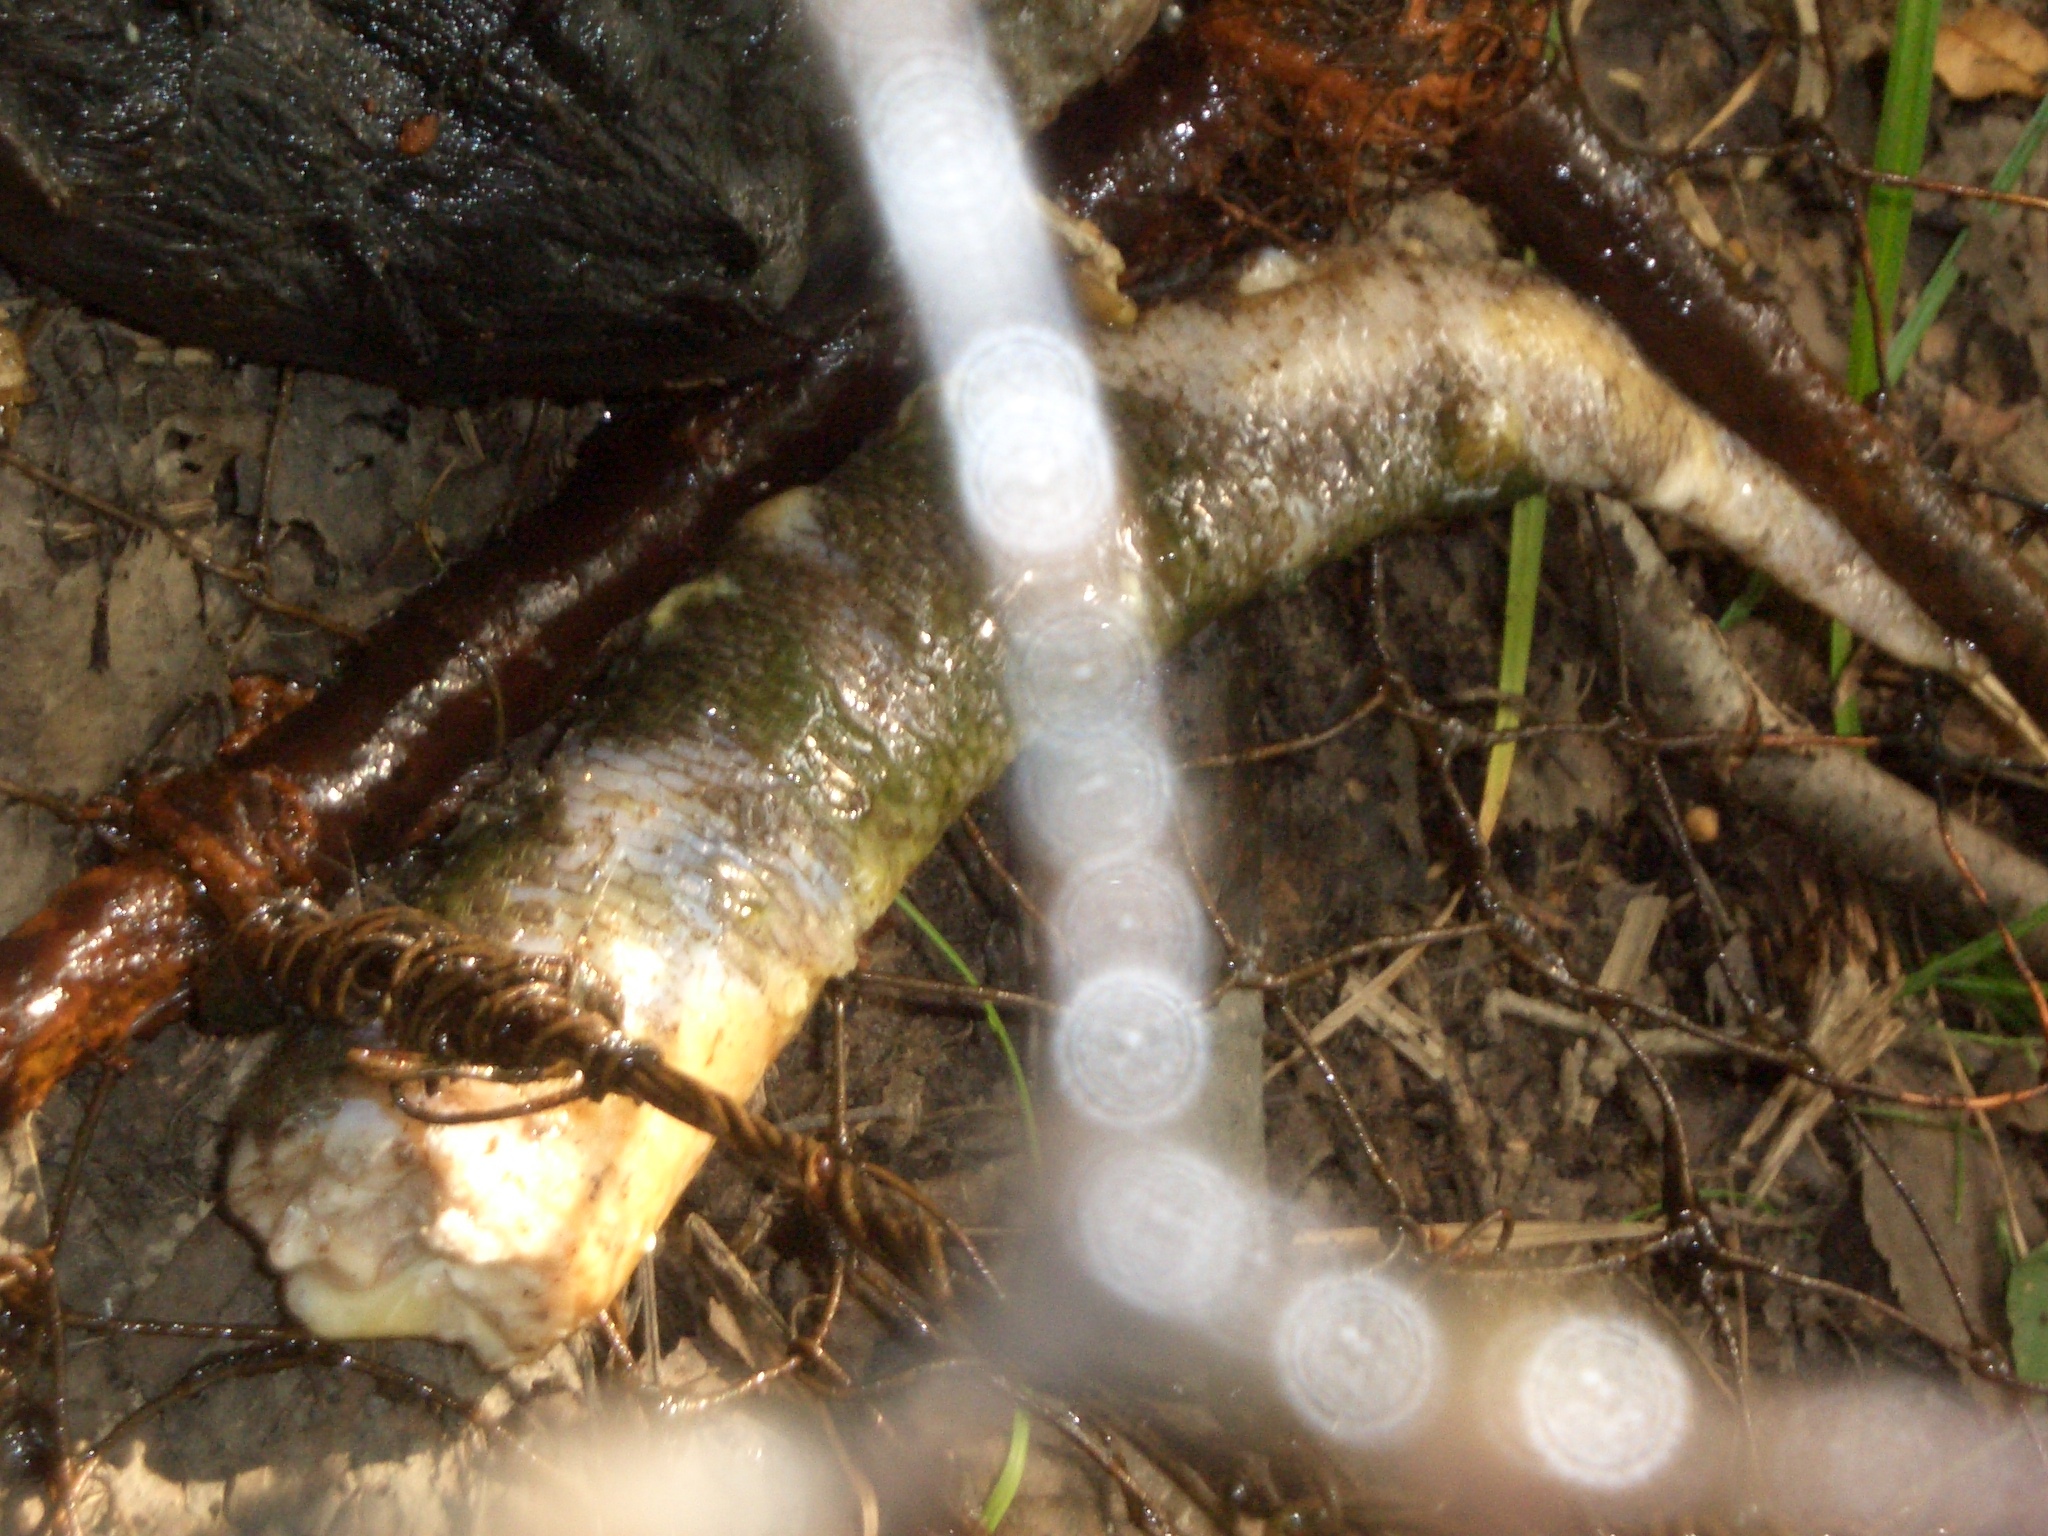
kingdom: Animalia
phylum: Chordata
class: Mammalia
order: Soricomorpha
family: Talpidae
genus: Desmana
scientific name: Desmana moschata
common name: Russian desman
